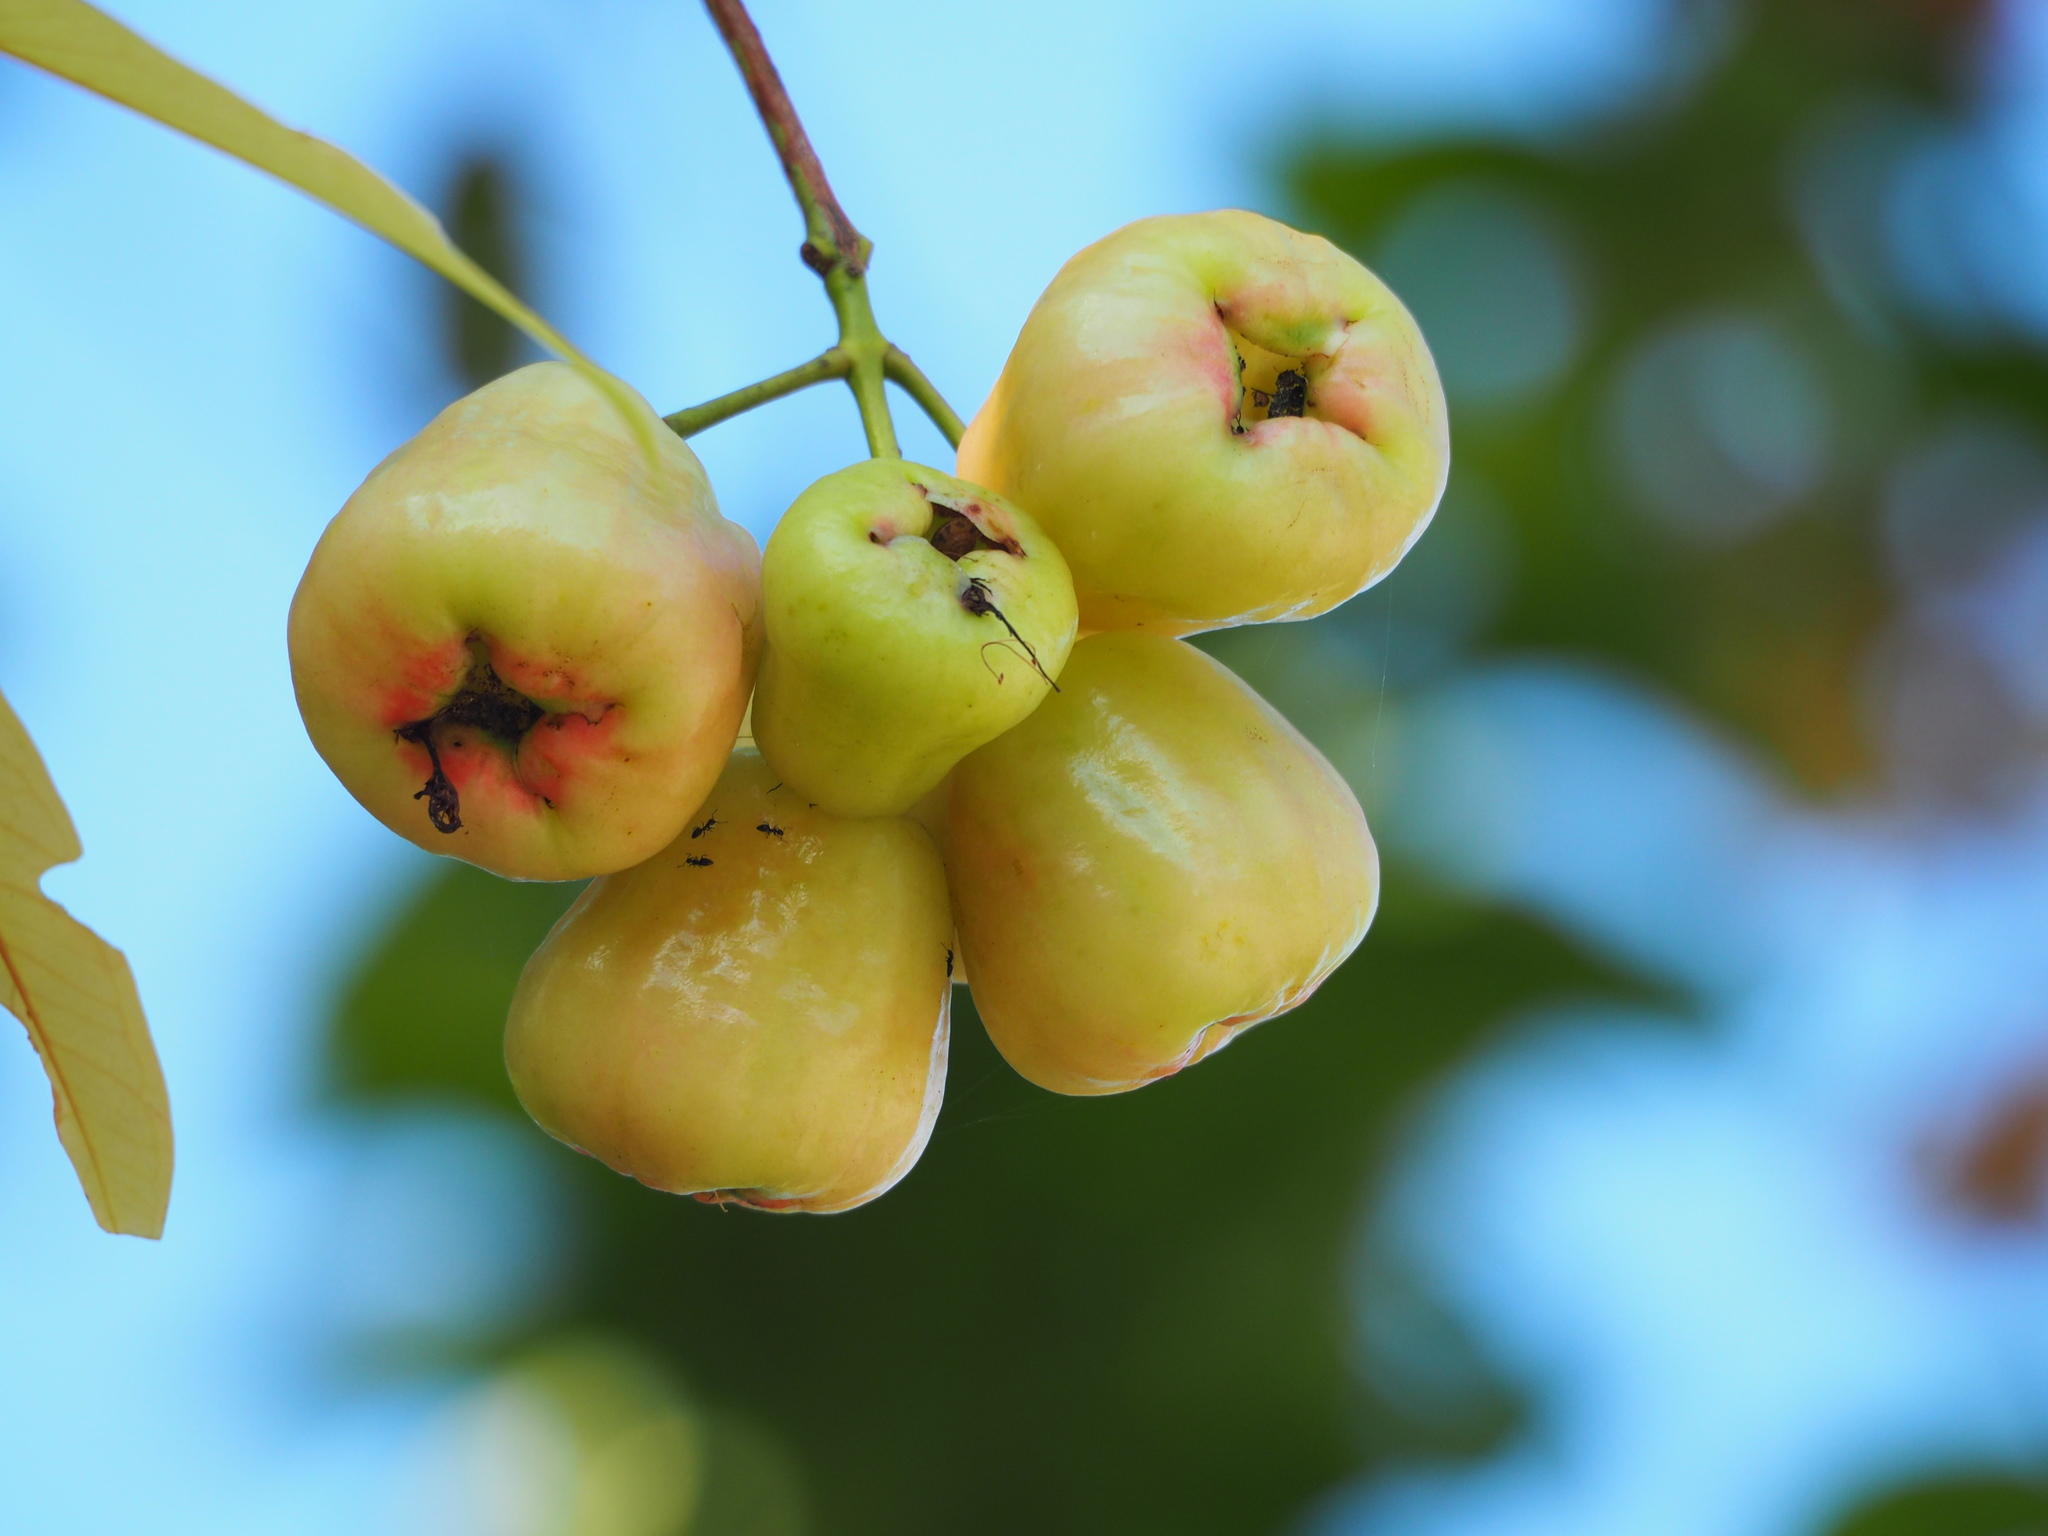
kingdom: Plantae
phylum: Tracheophyta
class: Magnoliopsida
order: Myrtales
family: Myrtaceae
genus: Syzygium
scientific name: Syzygium samarangense
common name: Semarang rose-apple
